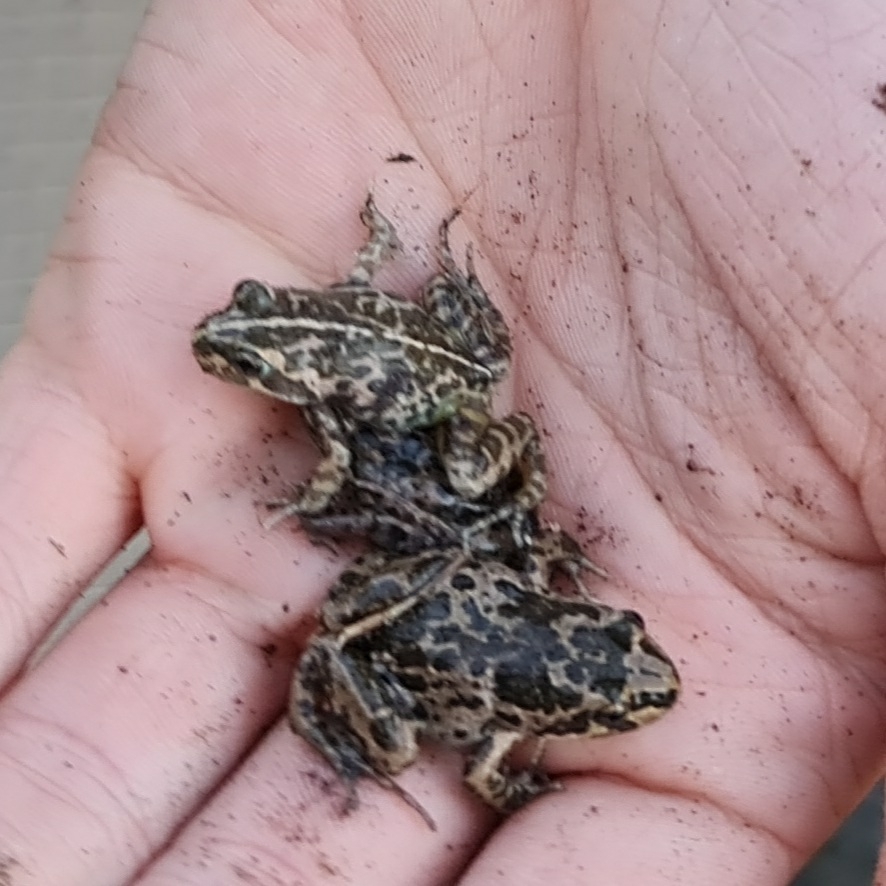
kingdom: Animalia
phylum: Chordata
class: Amphibia
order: Anura
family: Limnodynastidae
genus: Limnodynastes
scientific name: Limnodynastes tasmaniensis
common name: Spotted marsh frog
